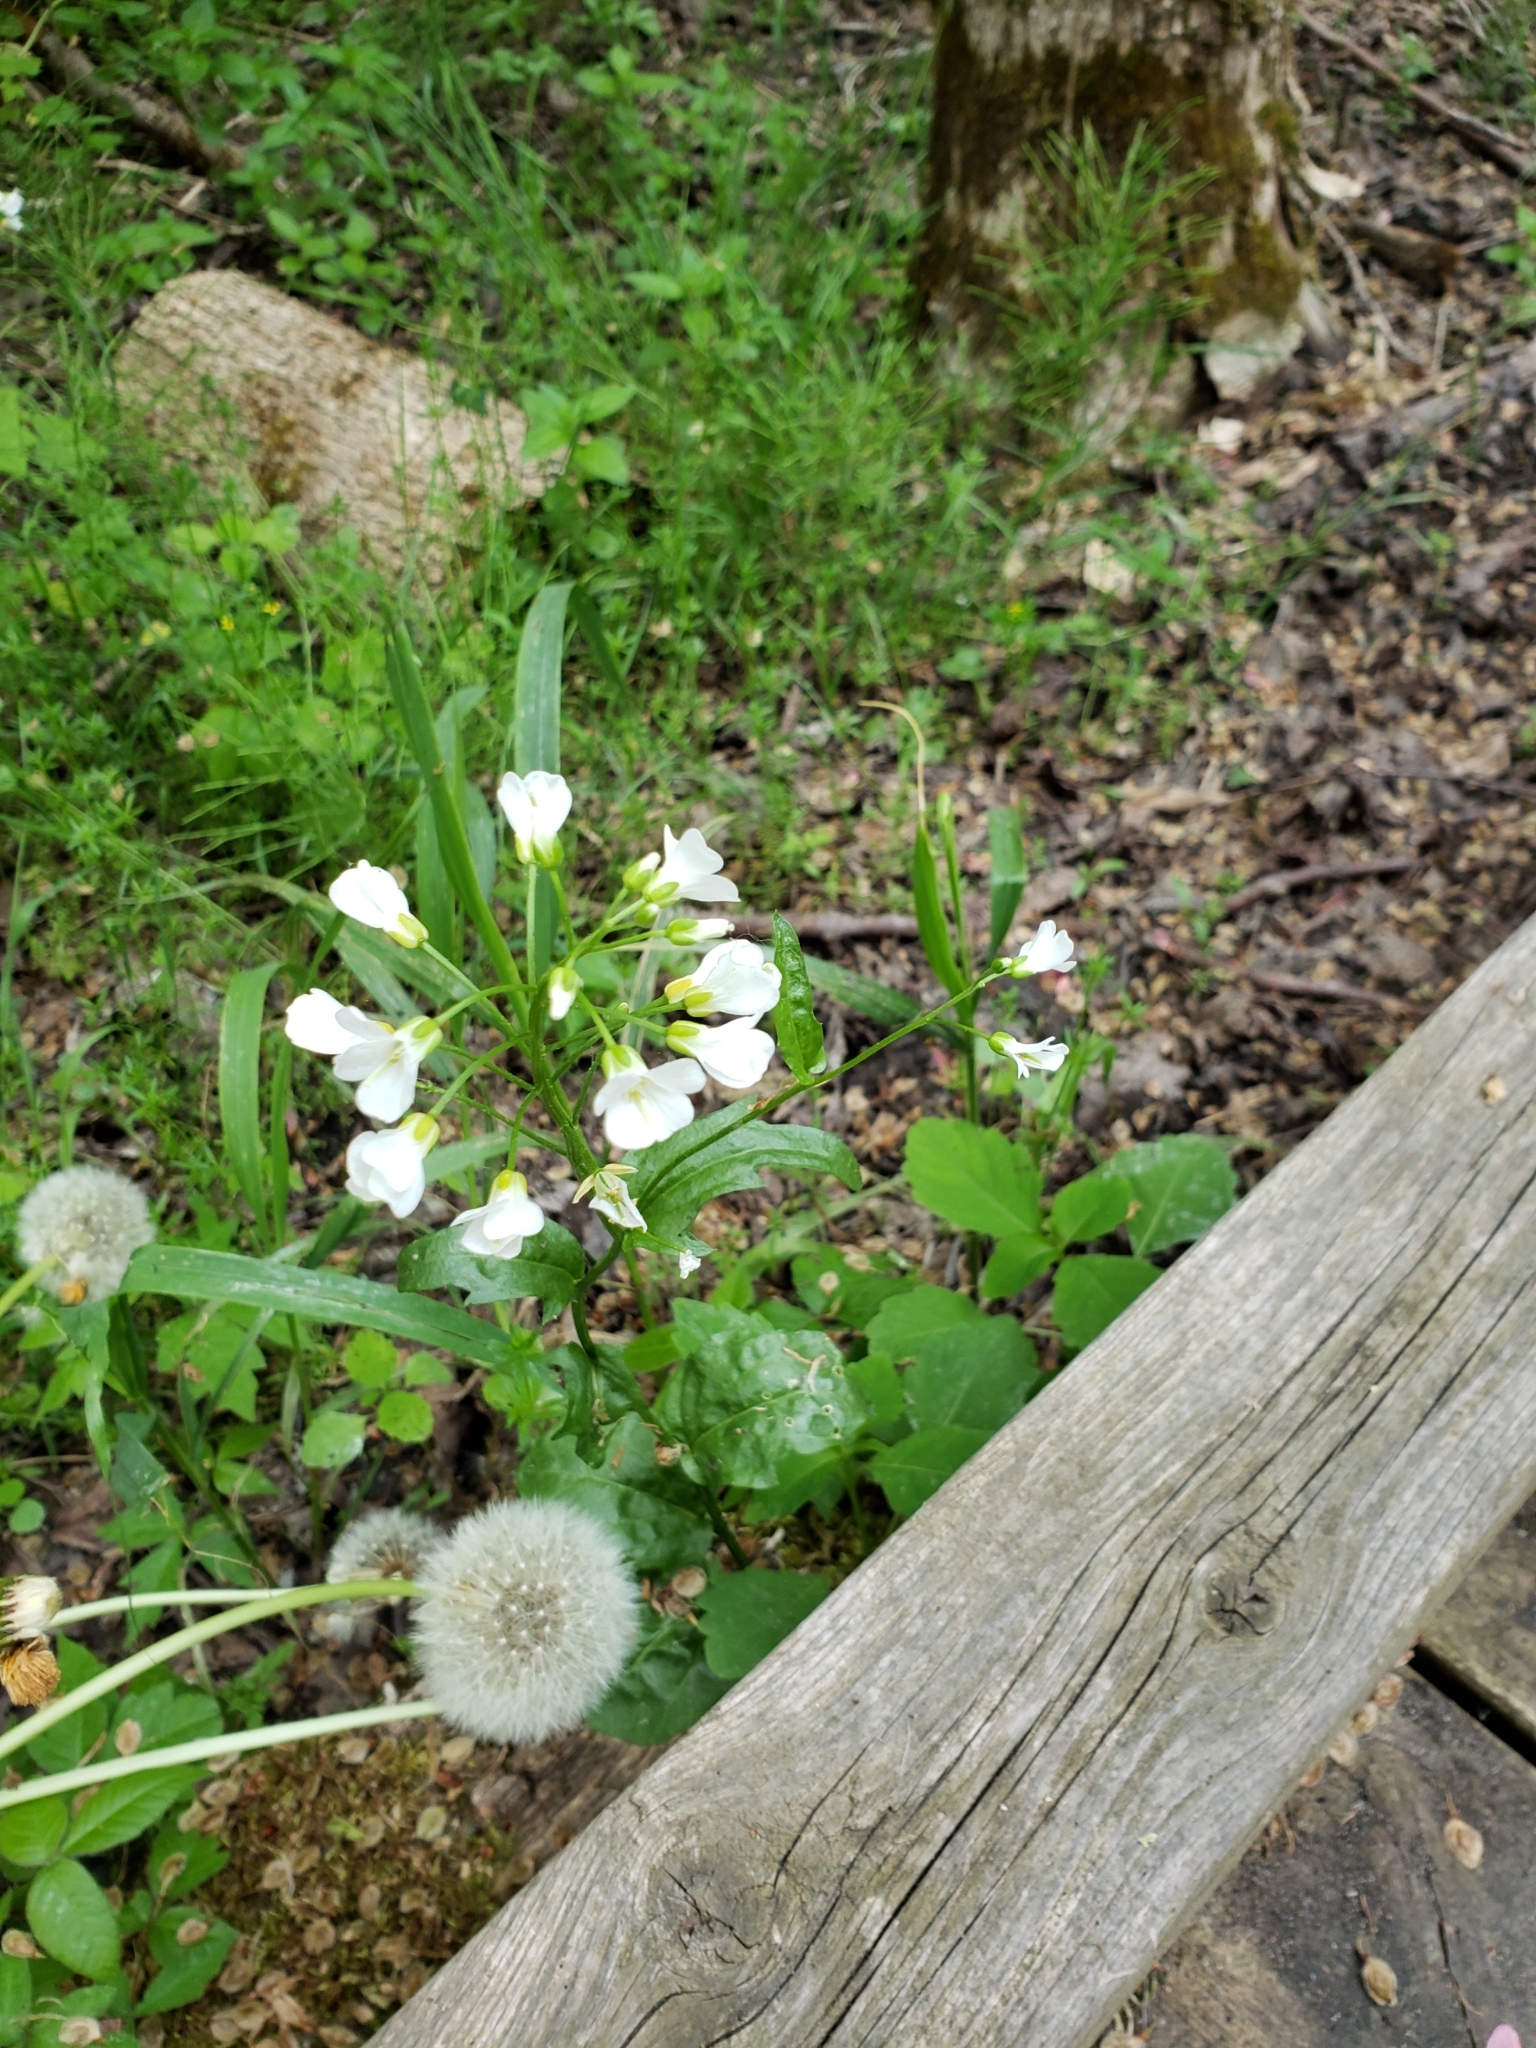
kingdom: Plantae
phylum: Tracheophyta
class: Magnoliopsida
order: Brassicales
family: Brassicaceae
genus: Cardamine
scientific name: Cardamine bulbosa
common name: Spring cress
